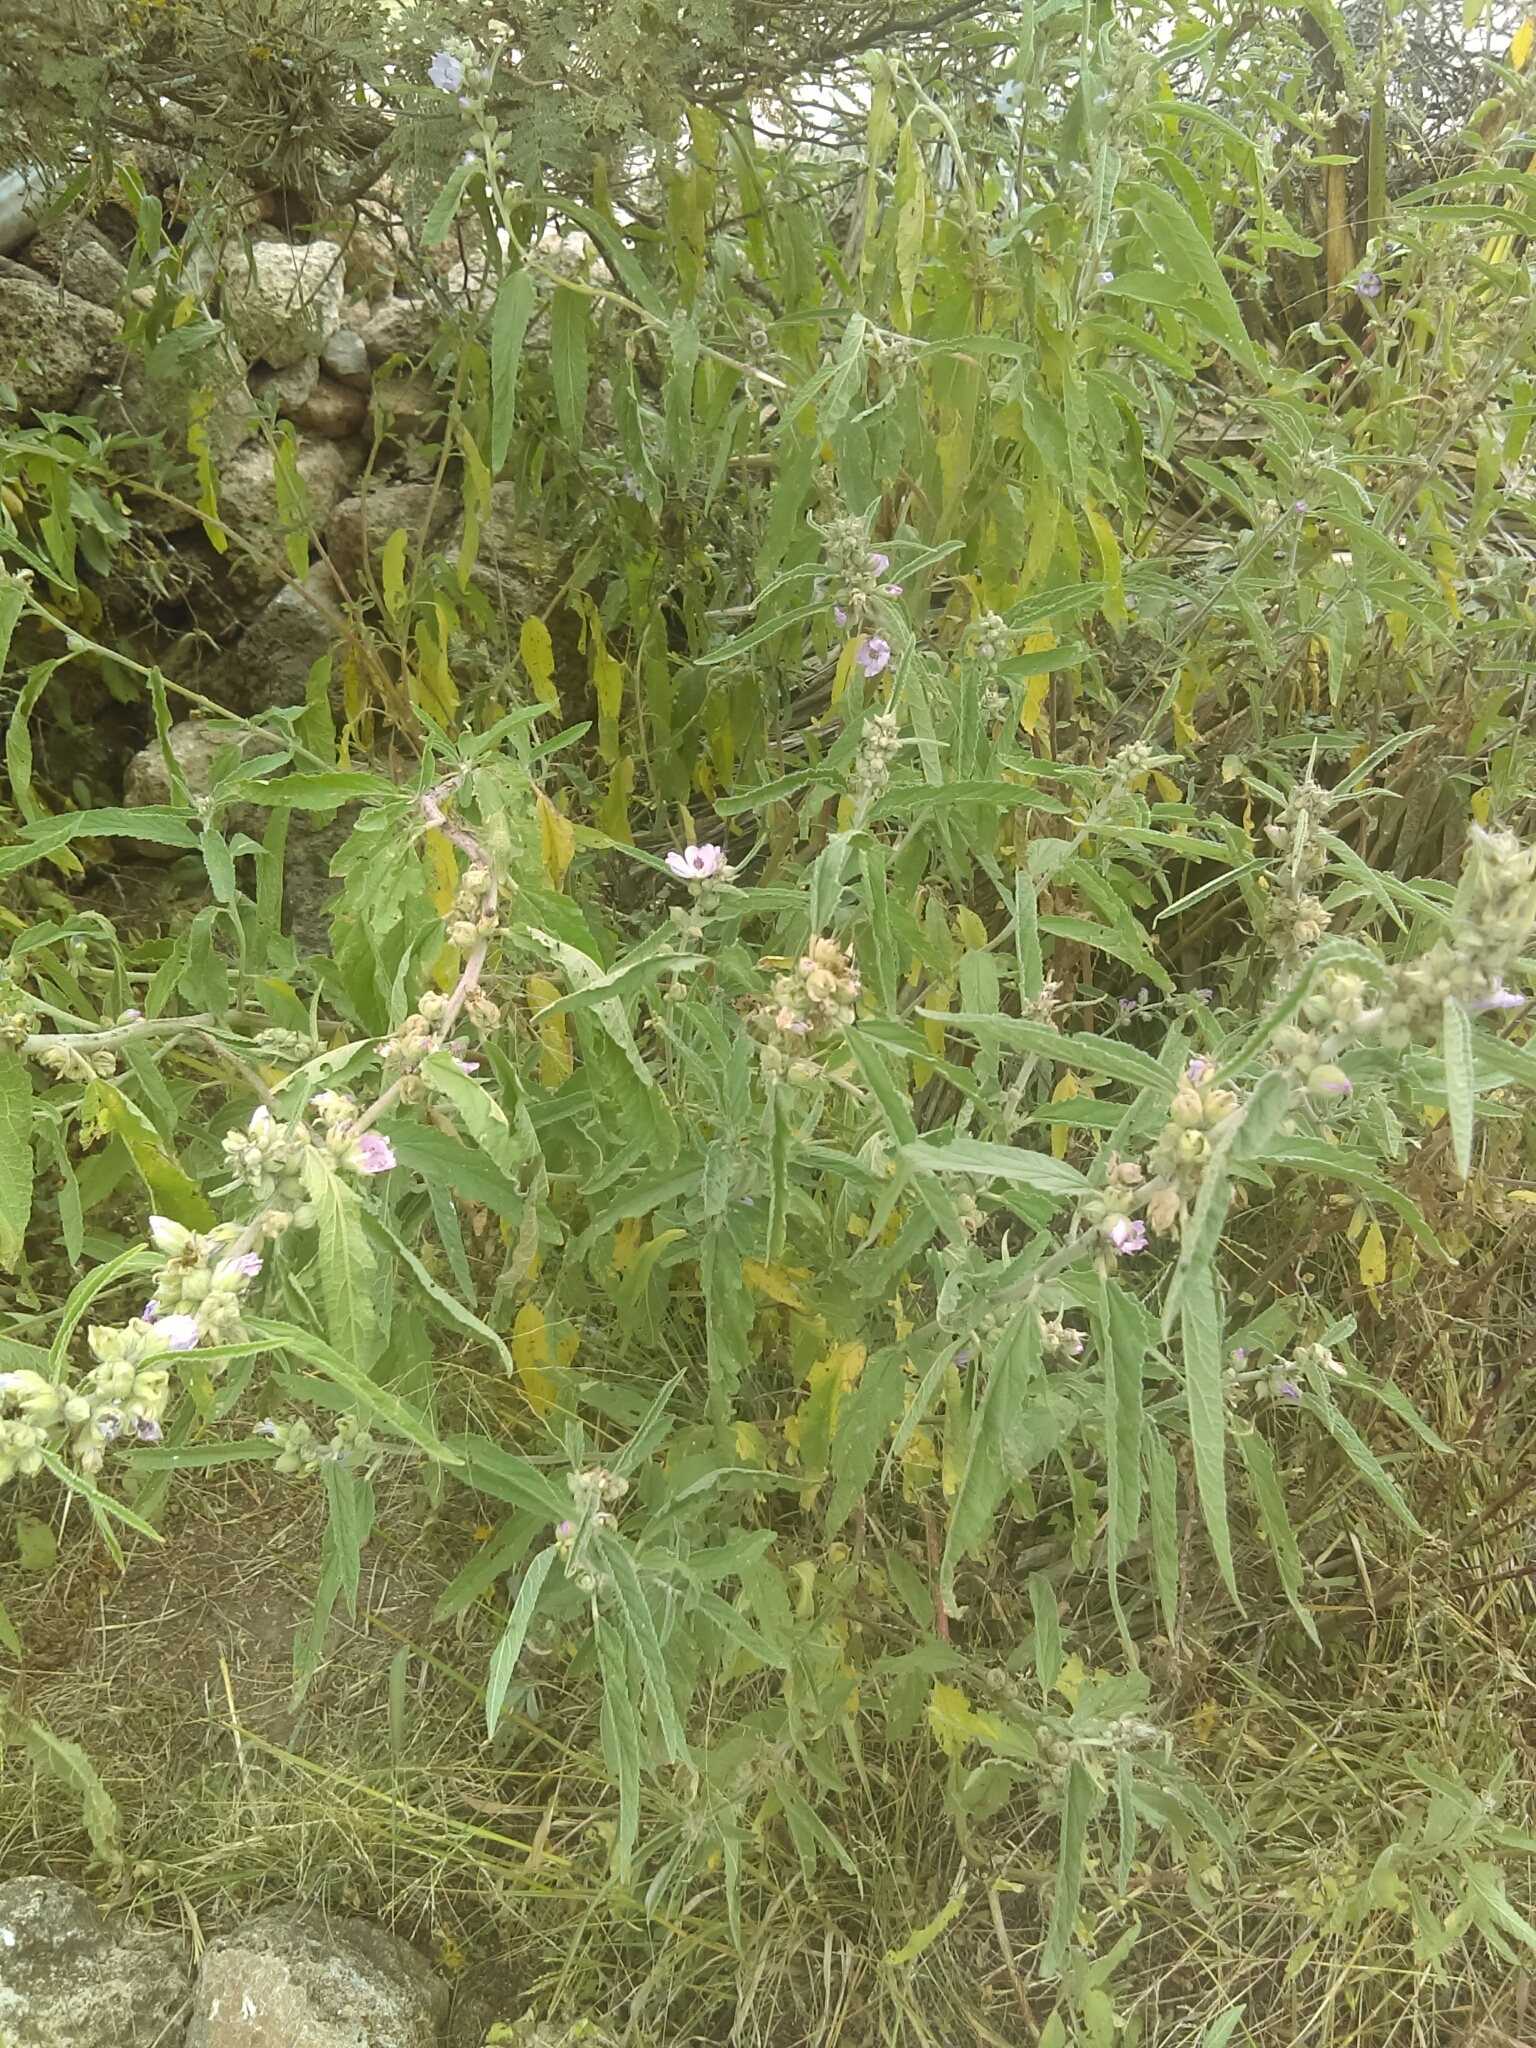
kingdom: Plantae
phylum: Tracheophyta
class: Magnoliopsida
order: Malvales
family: Malvaceae
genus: Sphaeralcea
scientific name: Sphaeralcea angustifolia
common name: Copper globe-mallow
